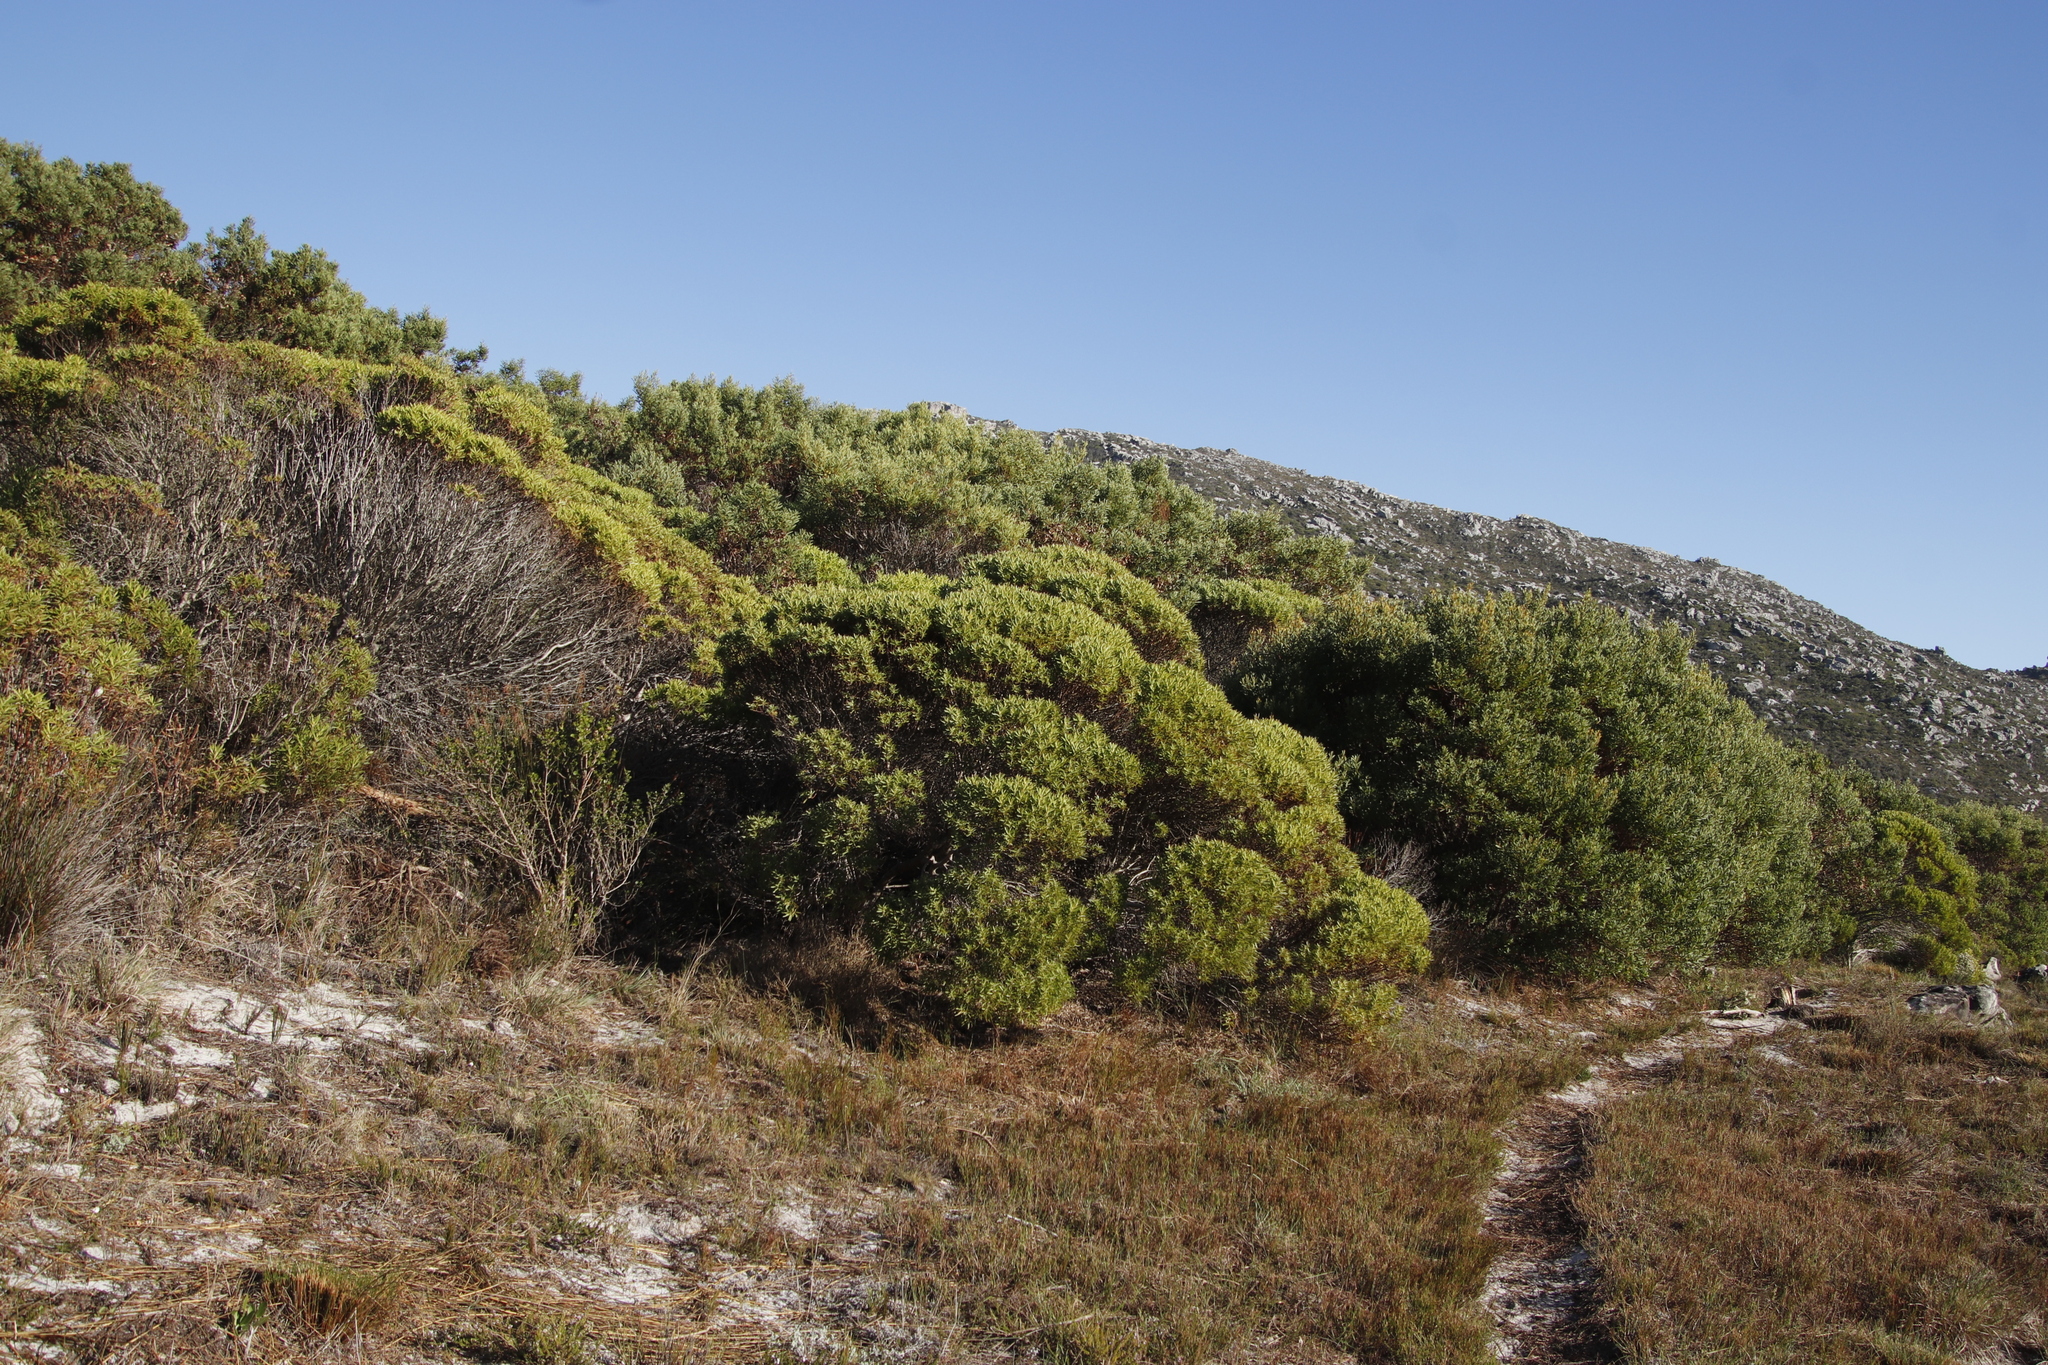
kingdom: Plantae
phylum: Tracheophyta
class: Magnoliopsida
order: Proteales
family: Proteaceae
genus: Leucadendron
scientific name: Leucadendron coniferum
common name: Dune conebush
